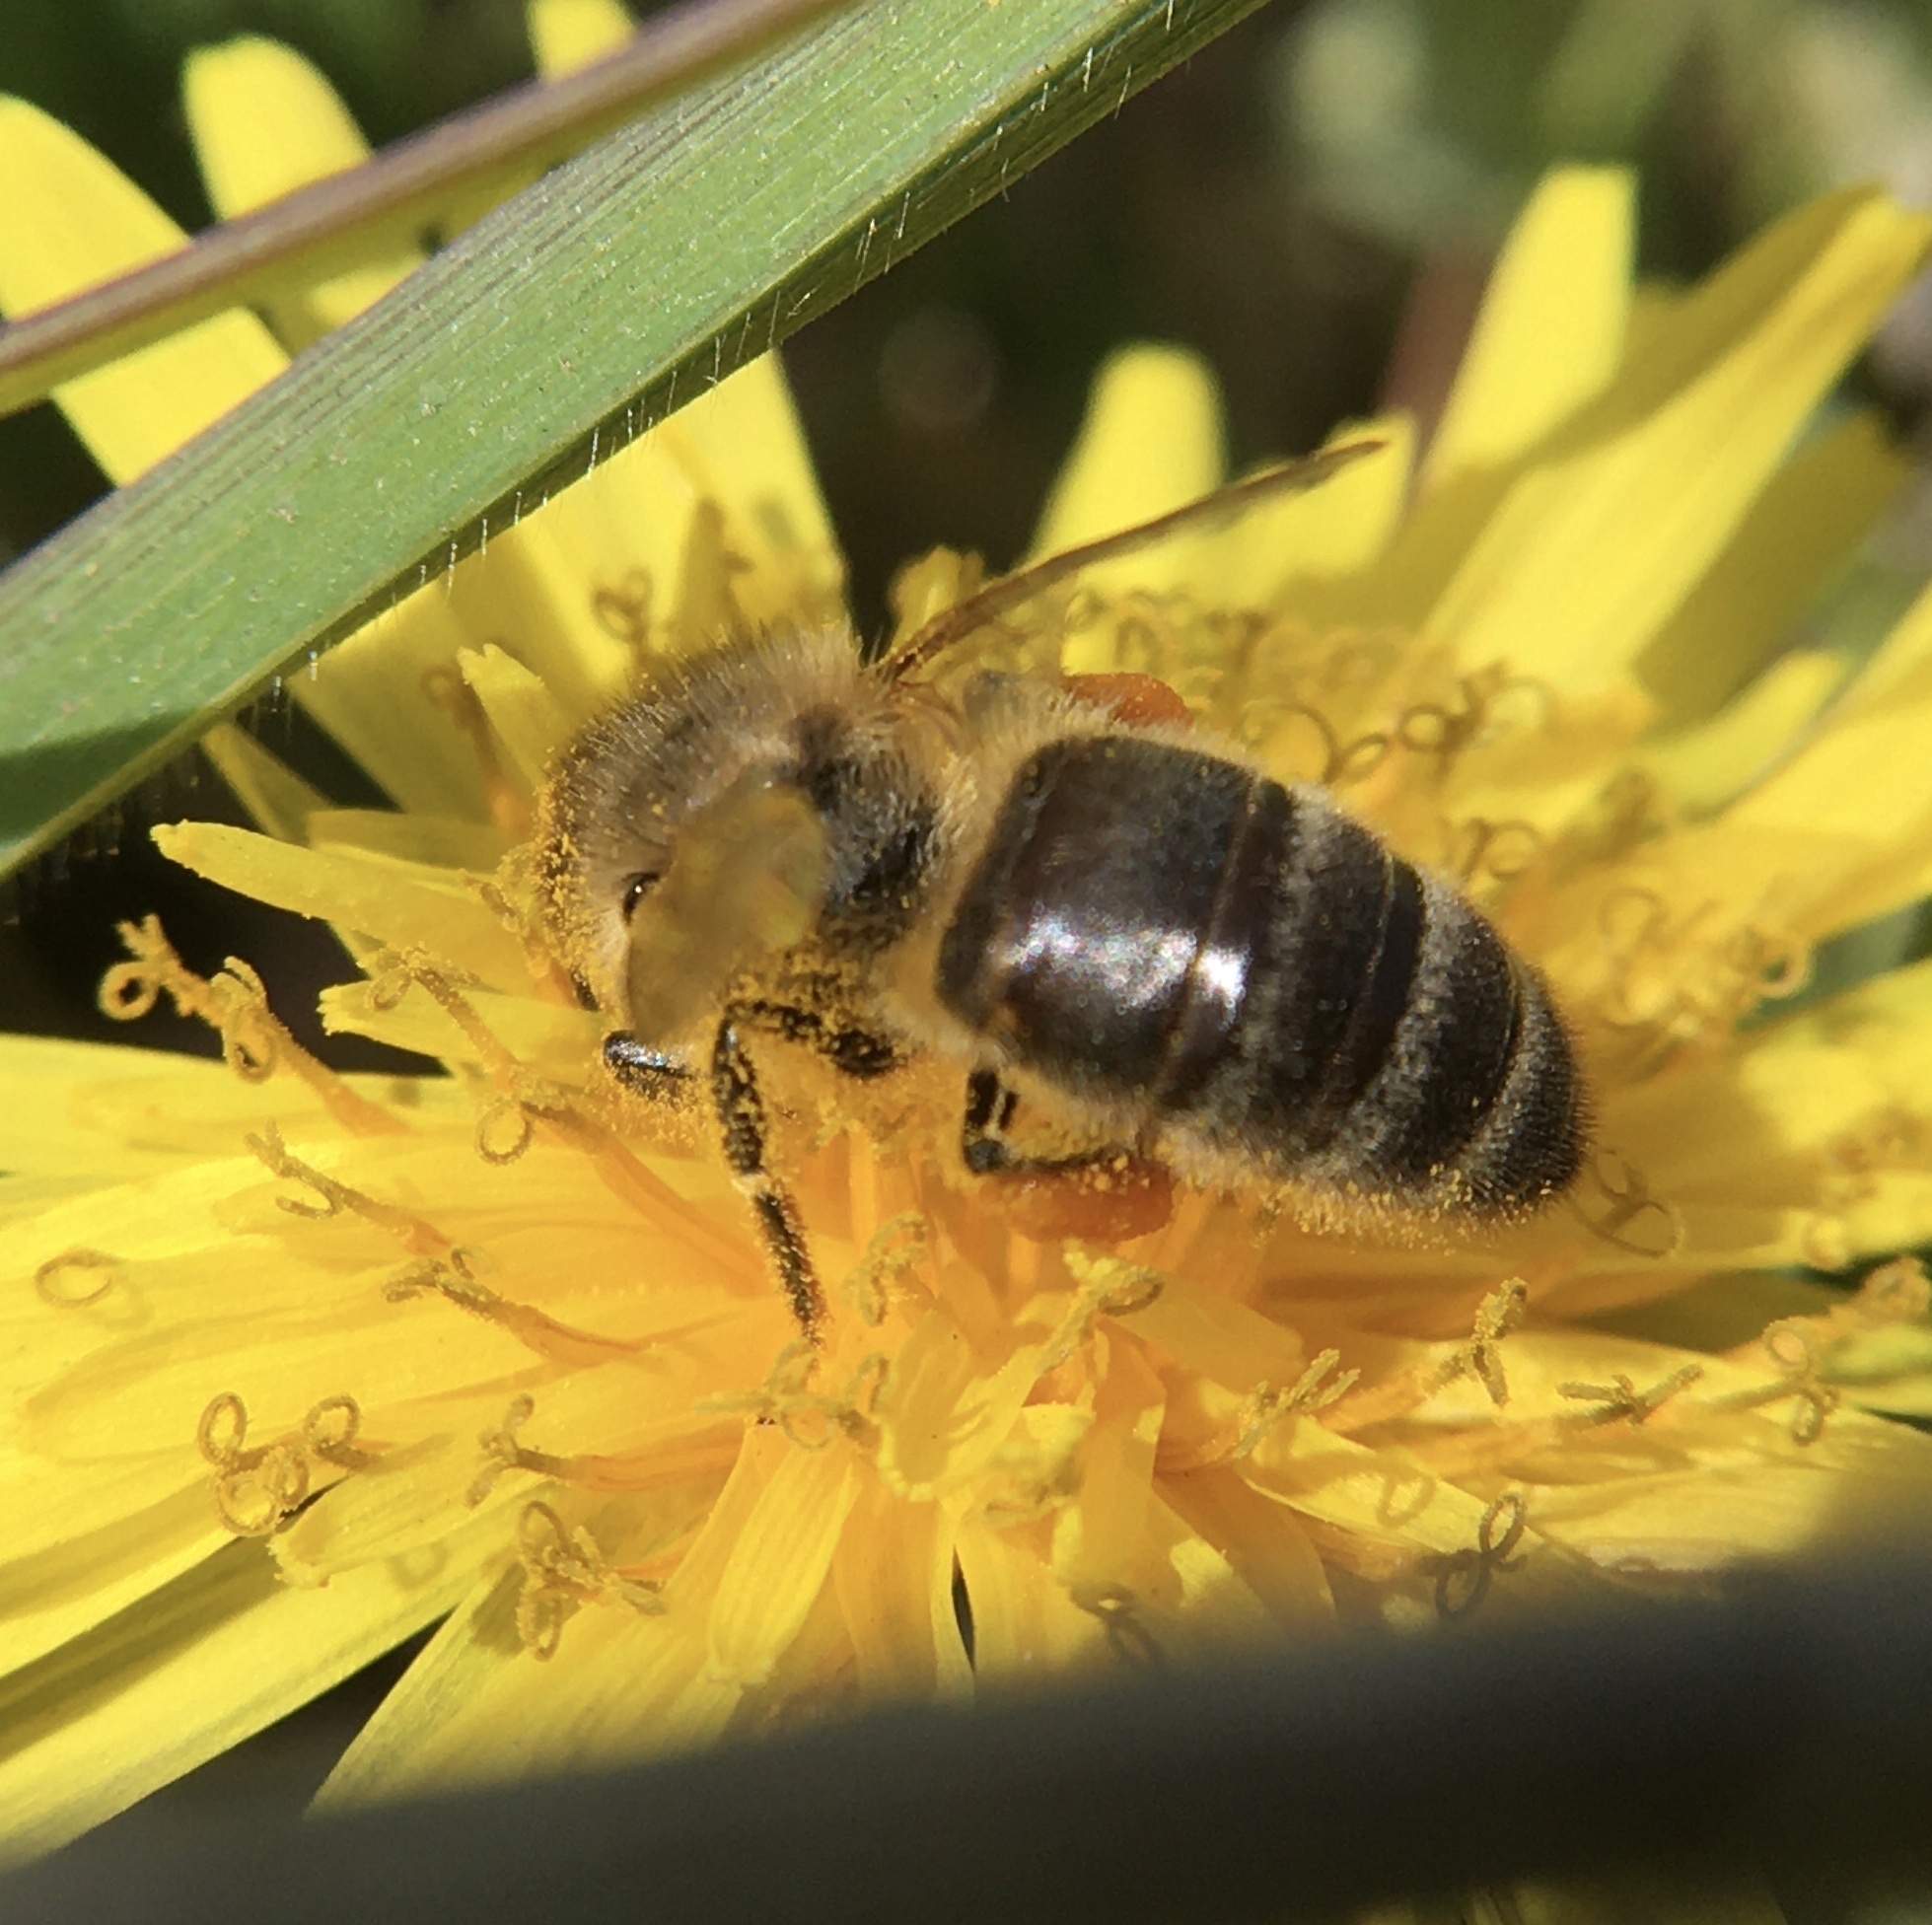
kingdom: Animalia
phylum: Arthropoda
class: Insecta
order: Hymenoptera
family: Apidae
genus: Apis
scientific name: Apis mellifera
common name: Honey bee
